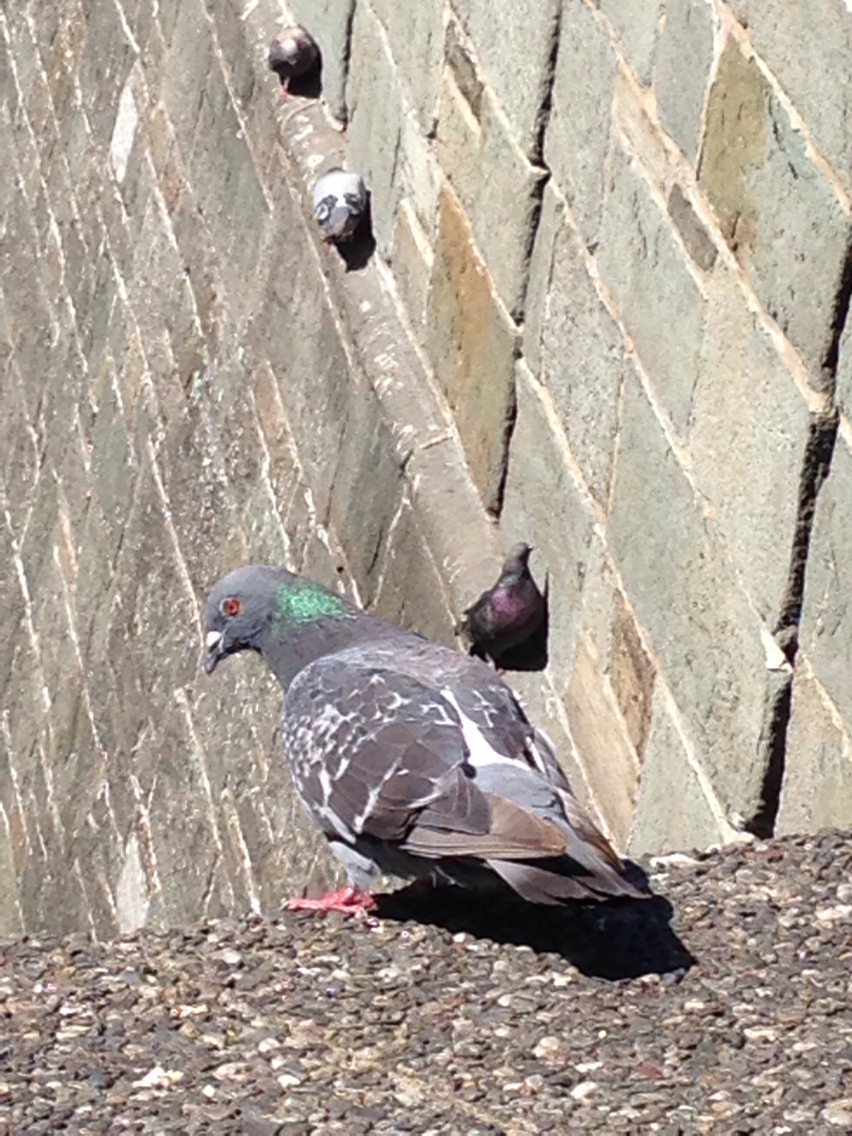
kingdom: Animalia
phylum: Chordata
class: Aves
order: Columbiformes
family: Columbidae
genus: Columba
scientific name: Columba livia
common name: Rock pigeon
